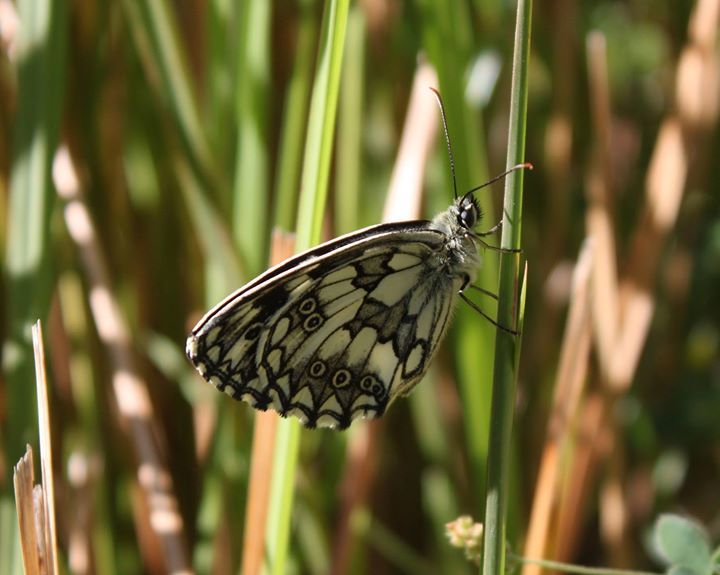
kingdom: Animalia
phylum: Arthropoda
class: Insecta
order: Lepidoptera
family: Nymphalidae
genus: Melanargia
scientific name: Melanargia galathea
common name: Marbled white
